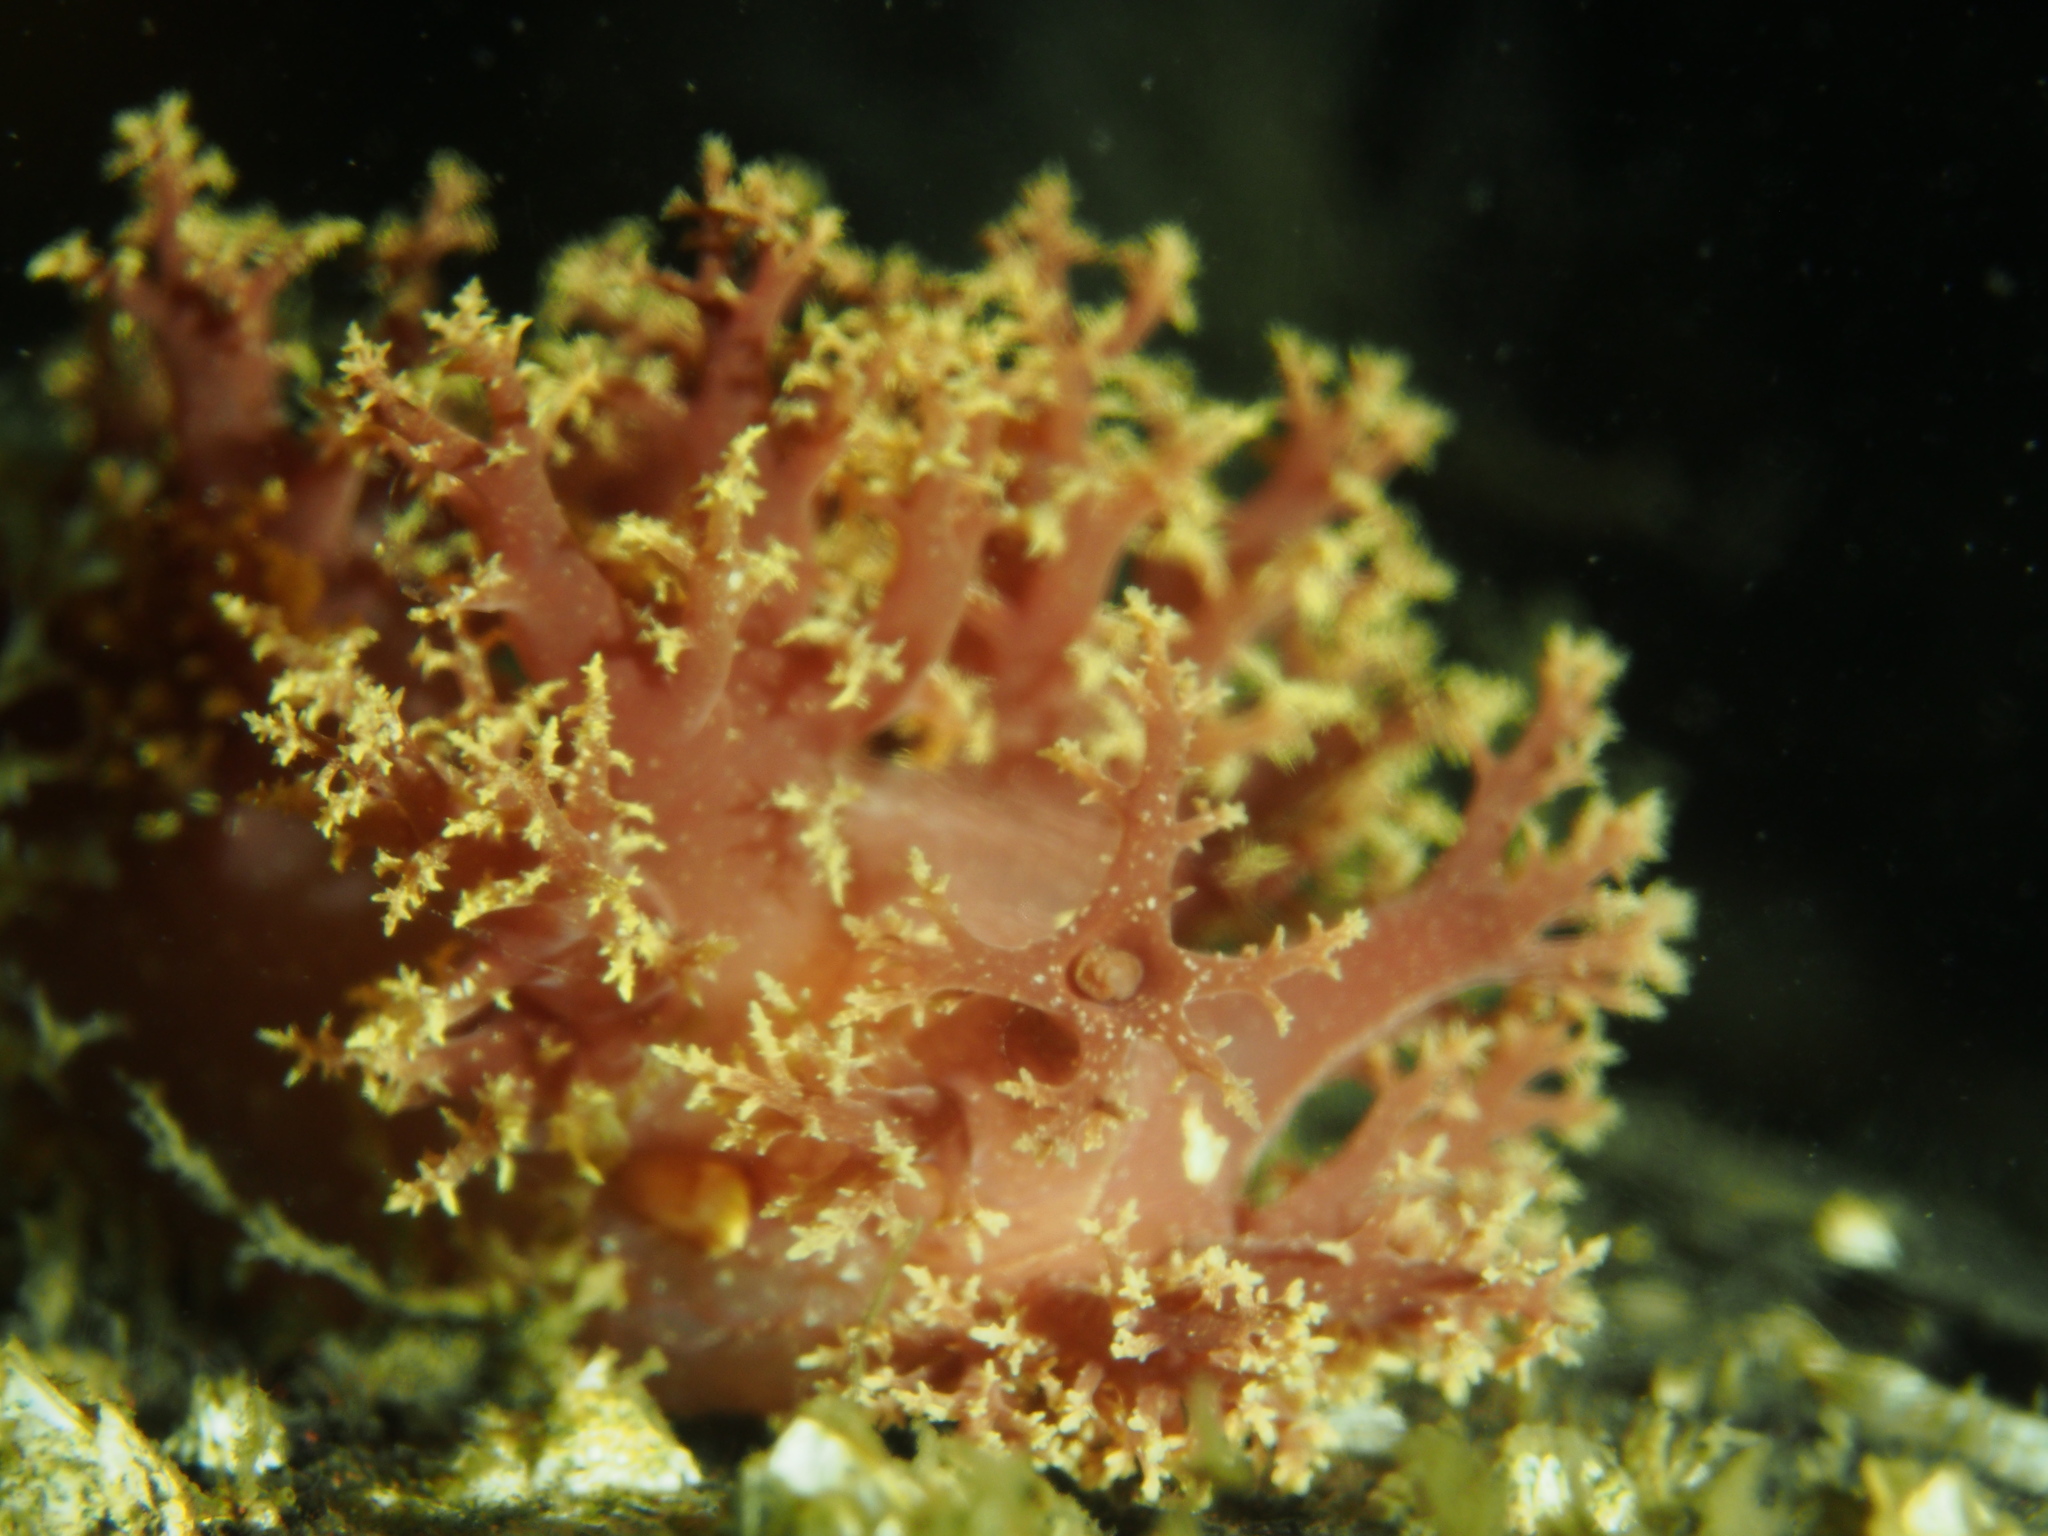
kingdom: Animalia
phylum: Mollusca
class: Gastropoda
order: Nudibranchia
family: Dendronotidae
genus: Dendronotus
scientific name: Dendronotus lacteus
